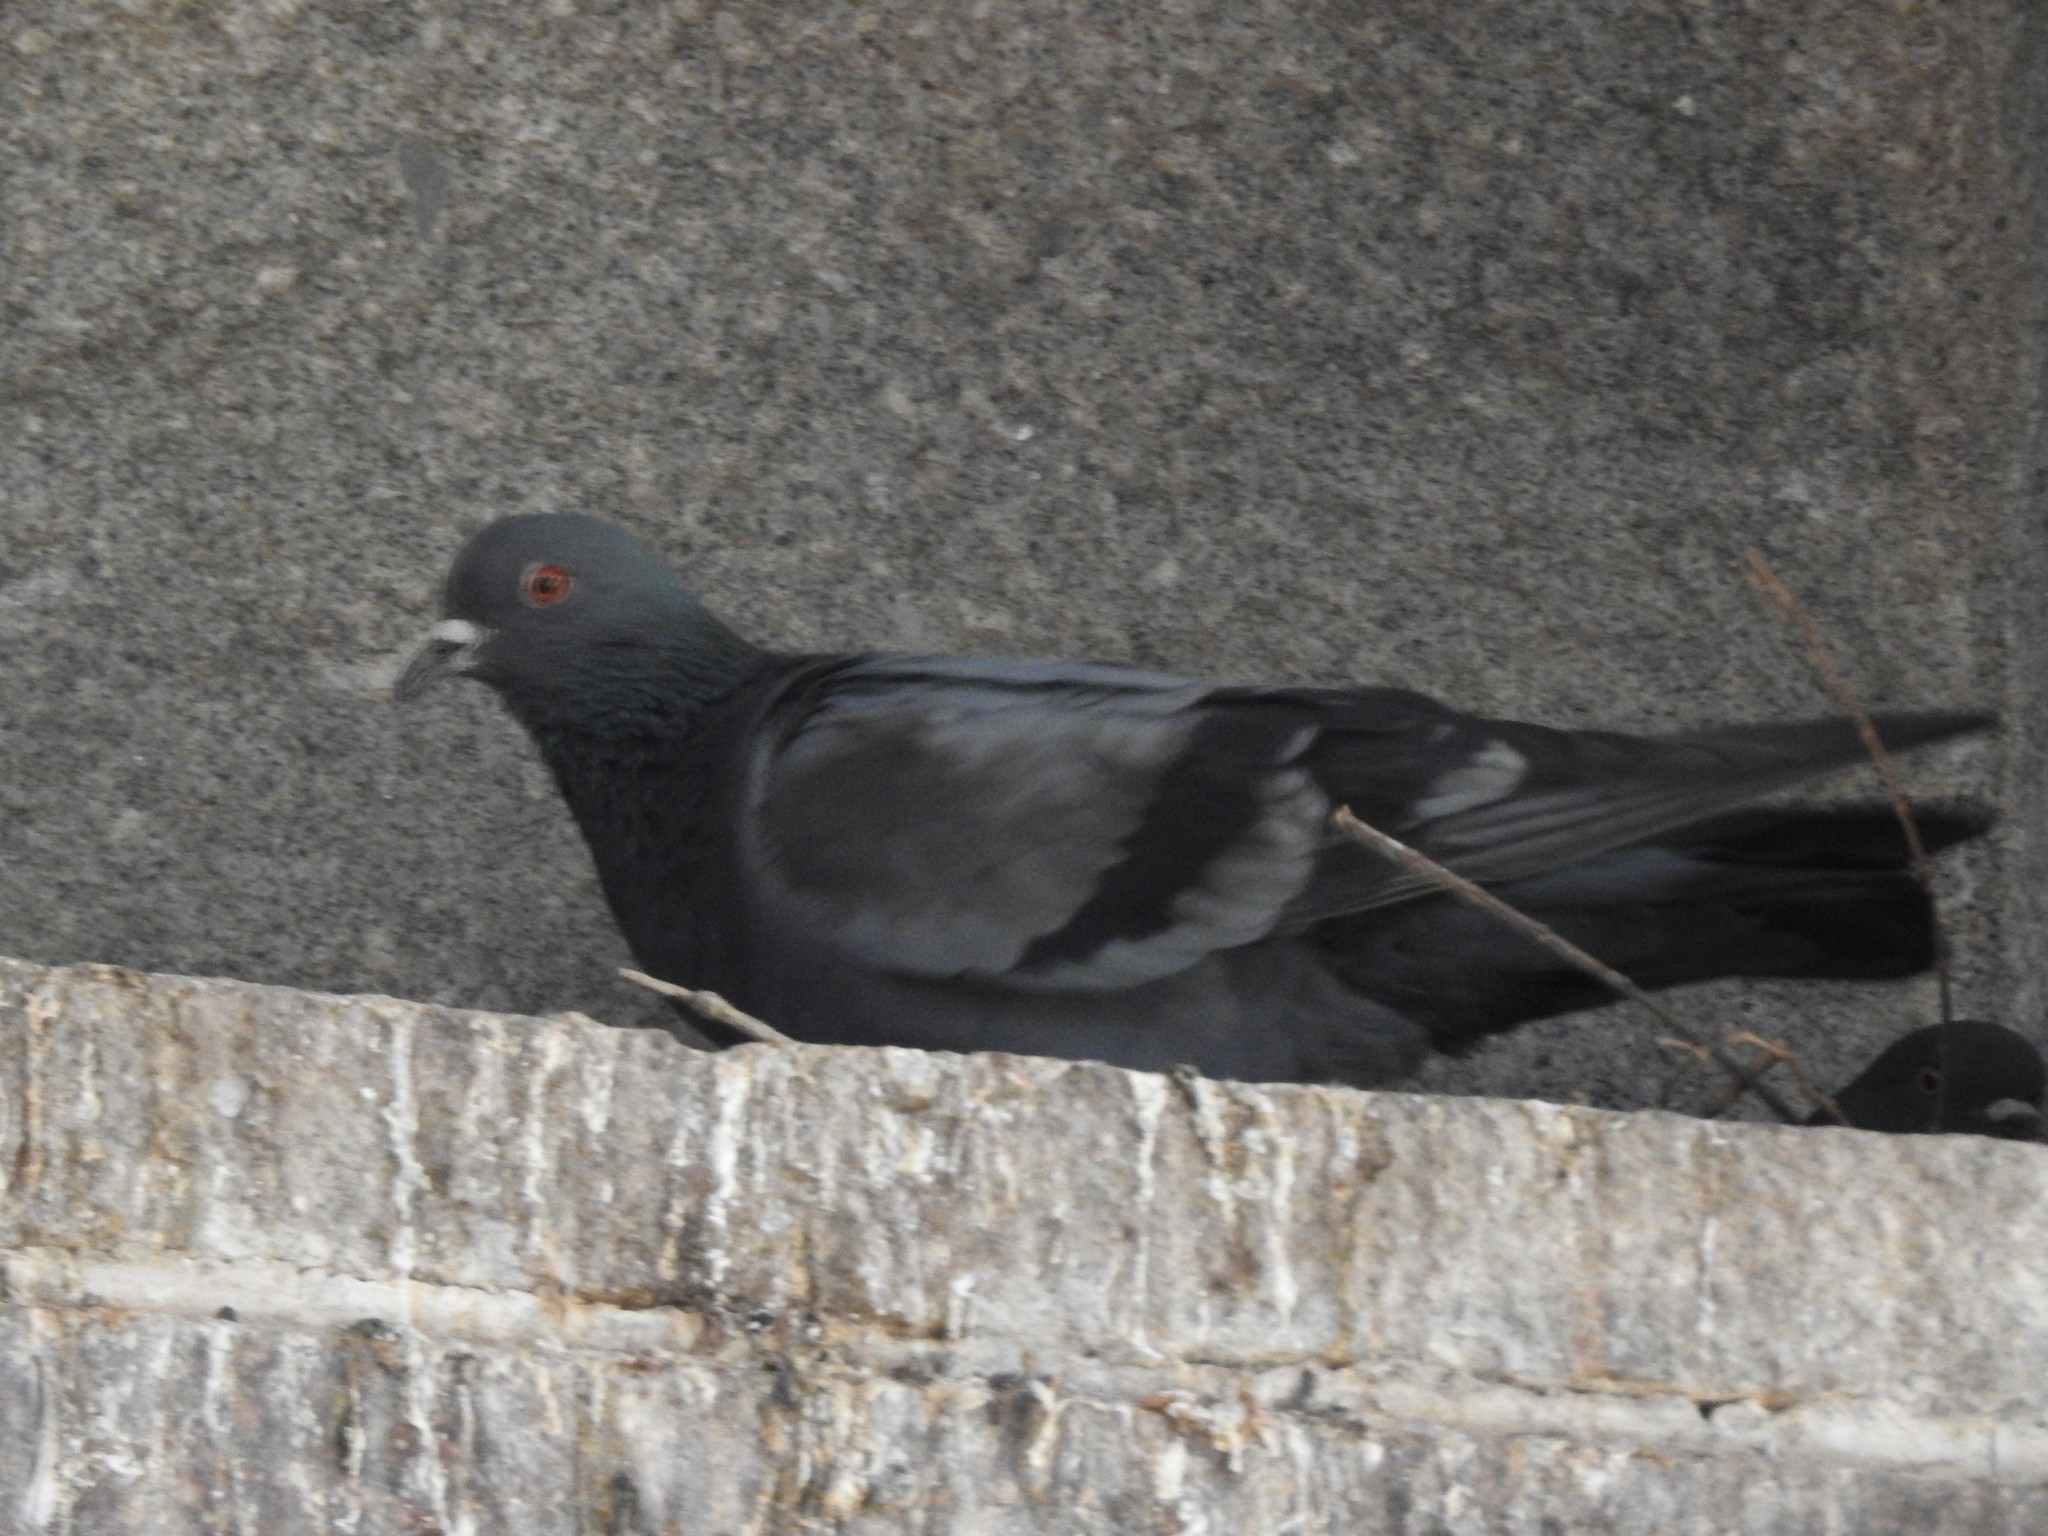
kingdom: Animalia
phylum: Chordata
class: Aves
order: Columbiformes
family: Columbidae
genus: Columba
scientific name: Columba livia
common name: Rock pigeon
